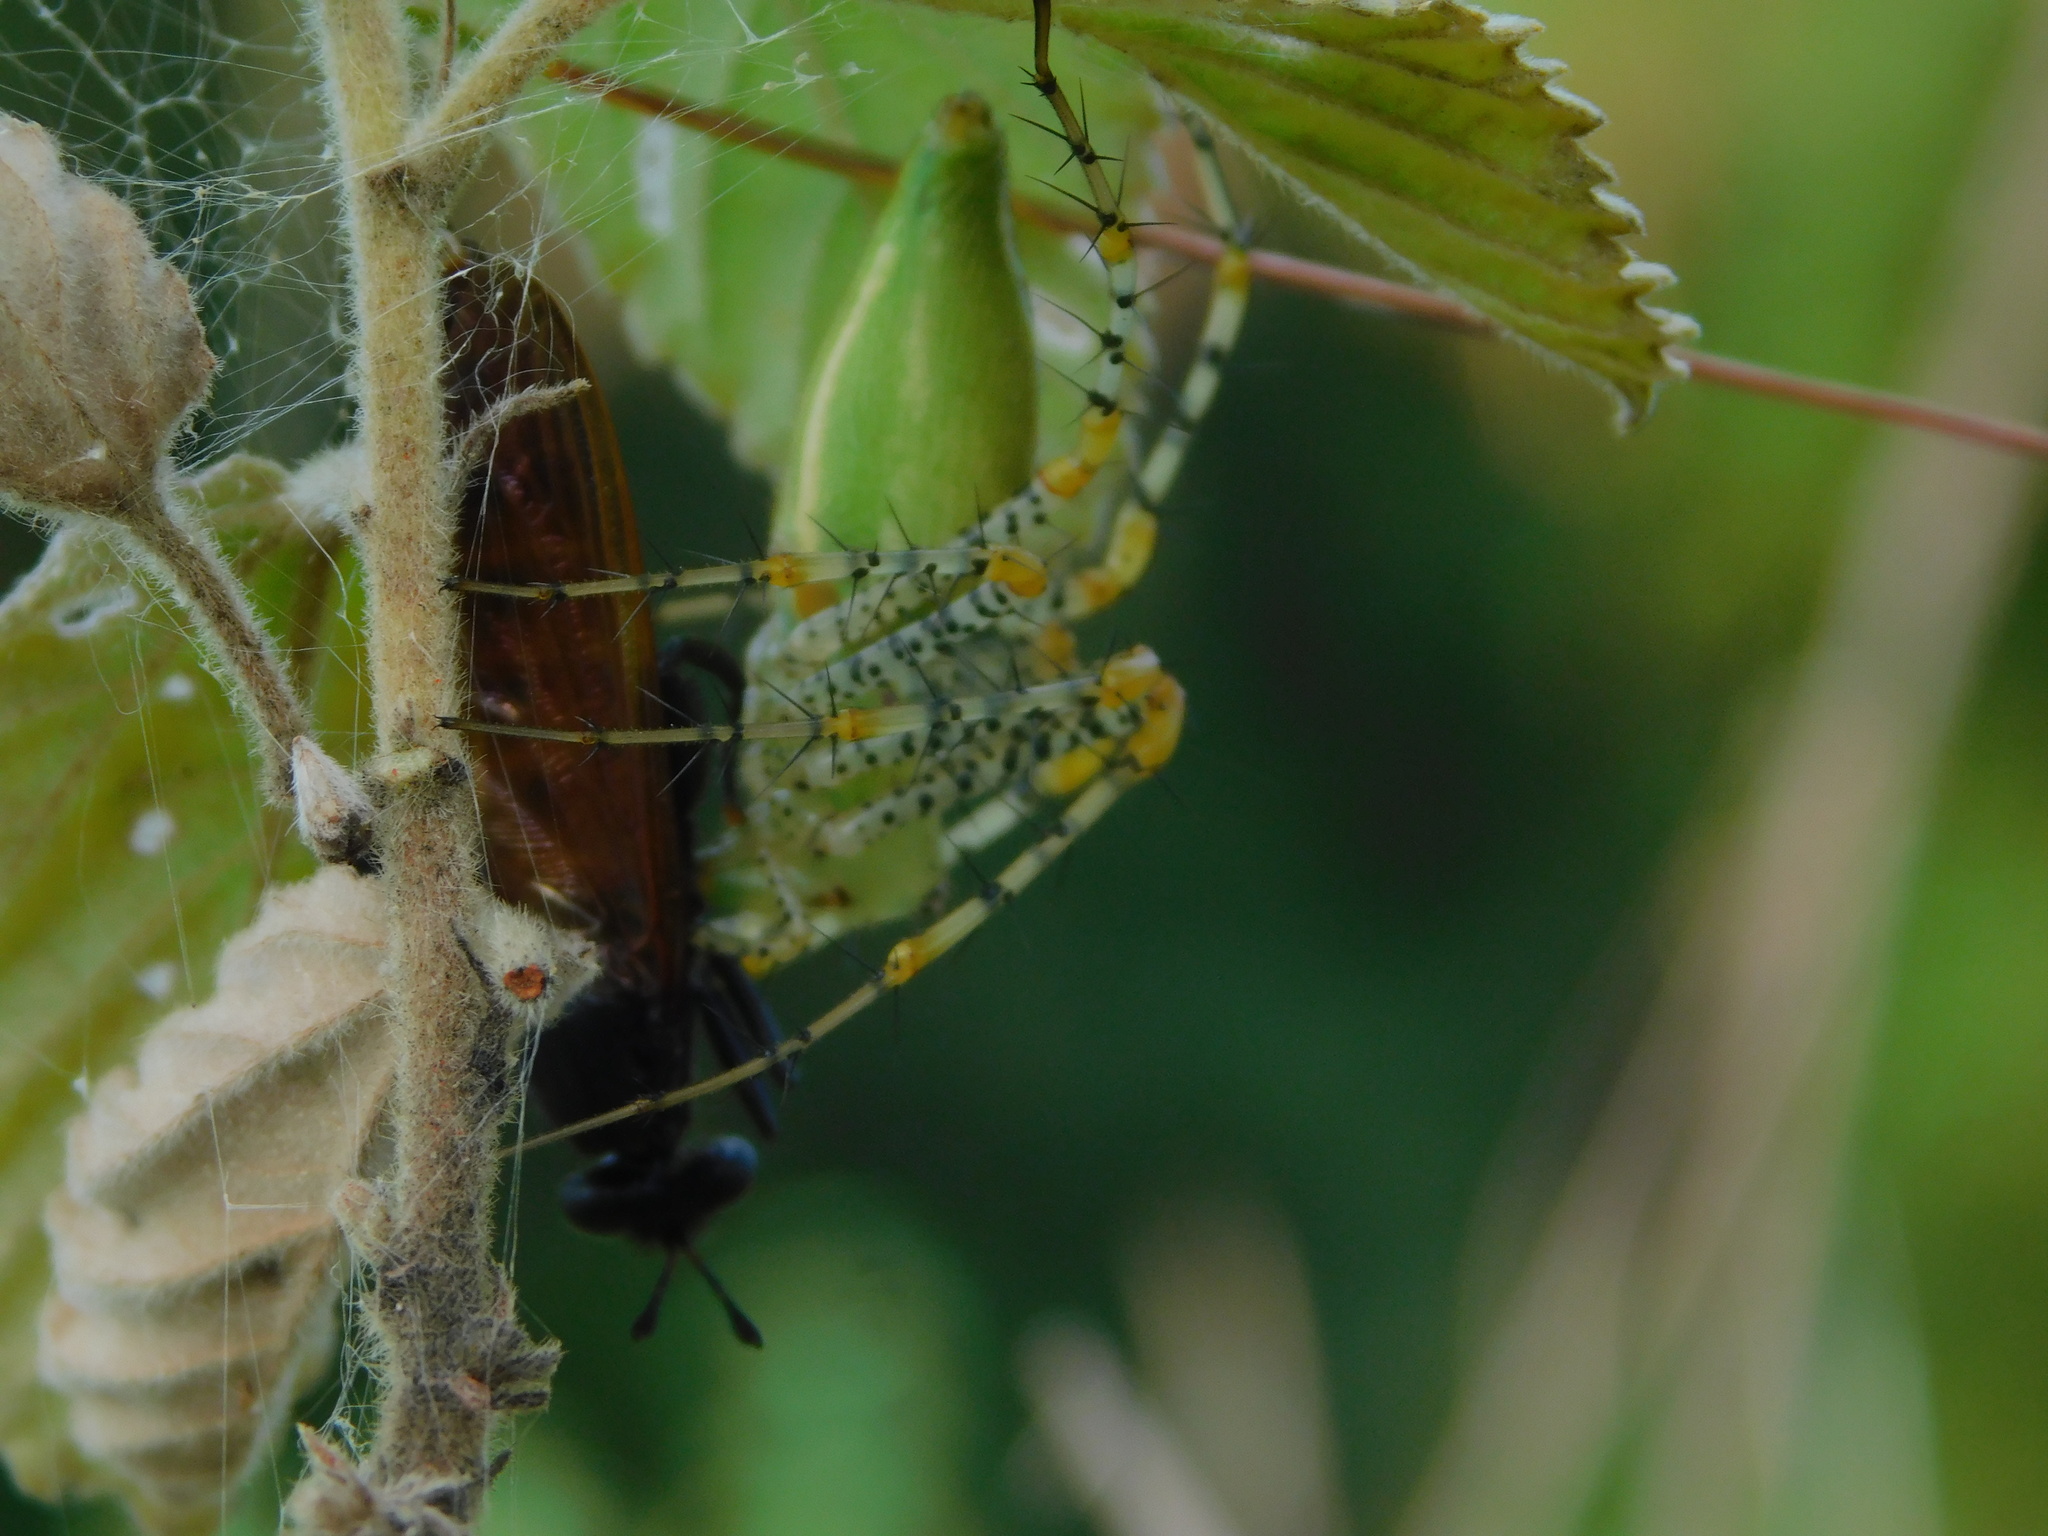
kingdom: Animalia
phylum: Arthropoda
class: Insecta
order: Diptera
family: Mydidae
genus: Mydas
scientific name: Mydas maculiventris
